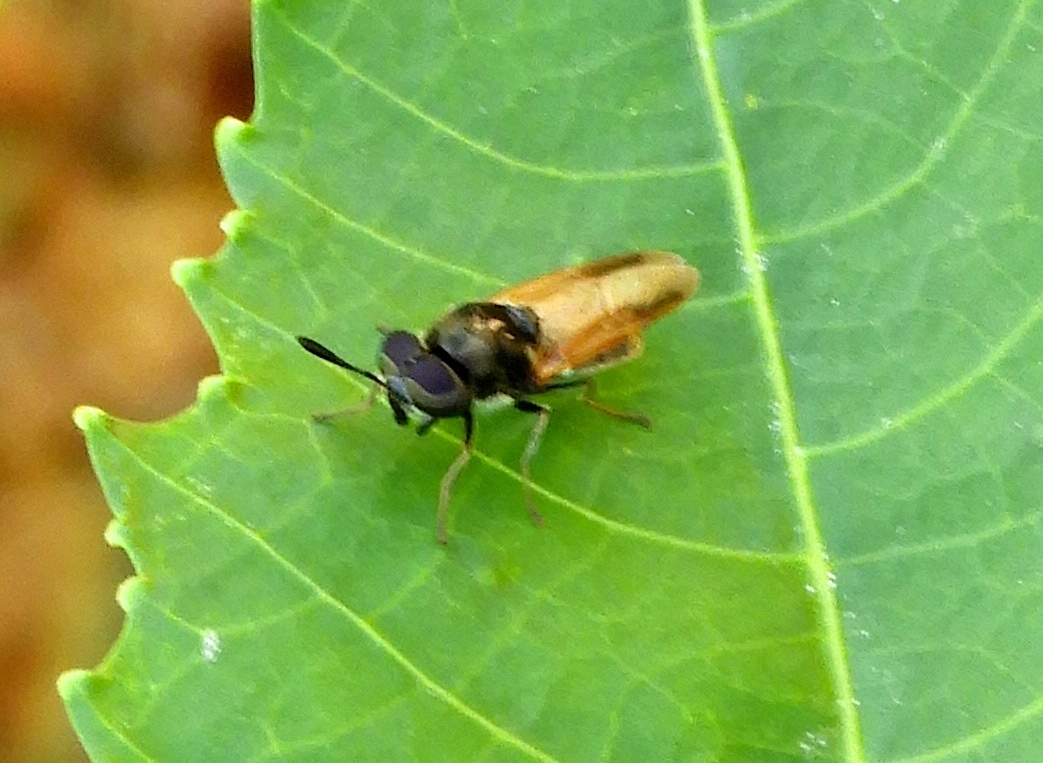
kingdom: Animalia
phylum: Arthropoda
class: Insecta
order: Diptera
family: Stratiomyidae
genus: Hoplitimyia
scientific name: Hoplitimyia
